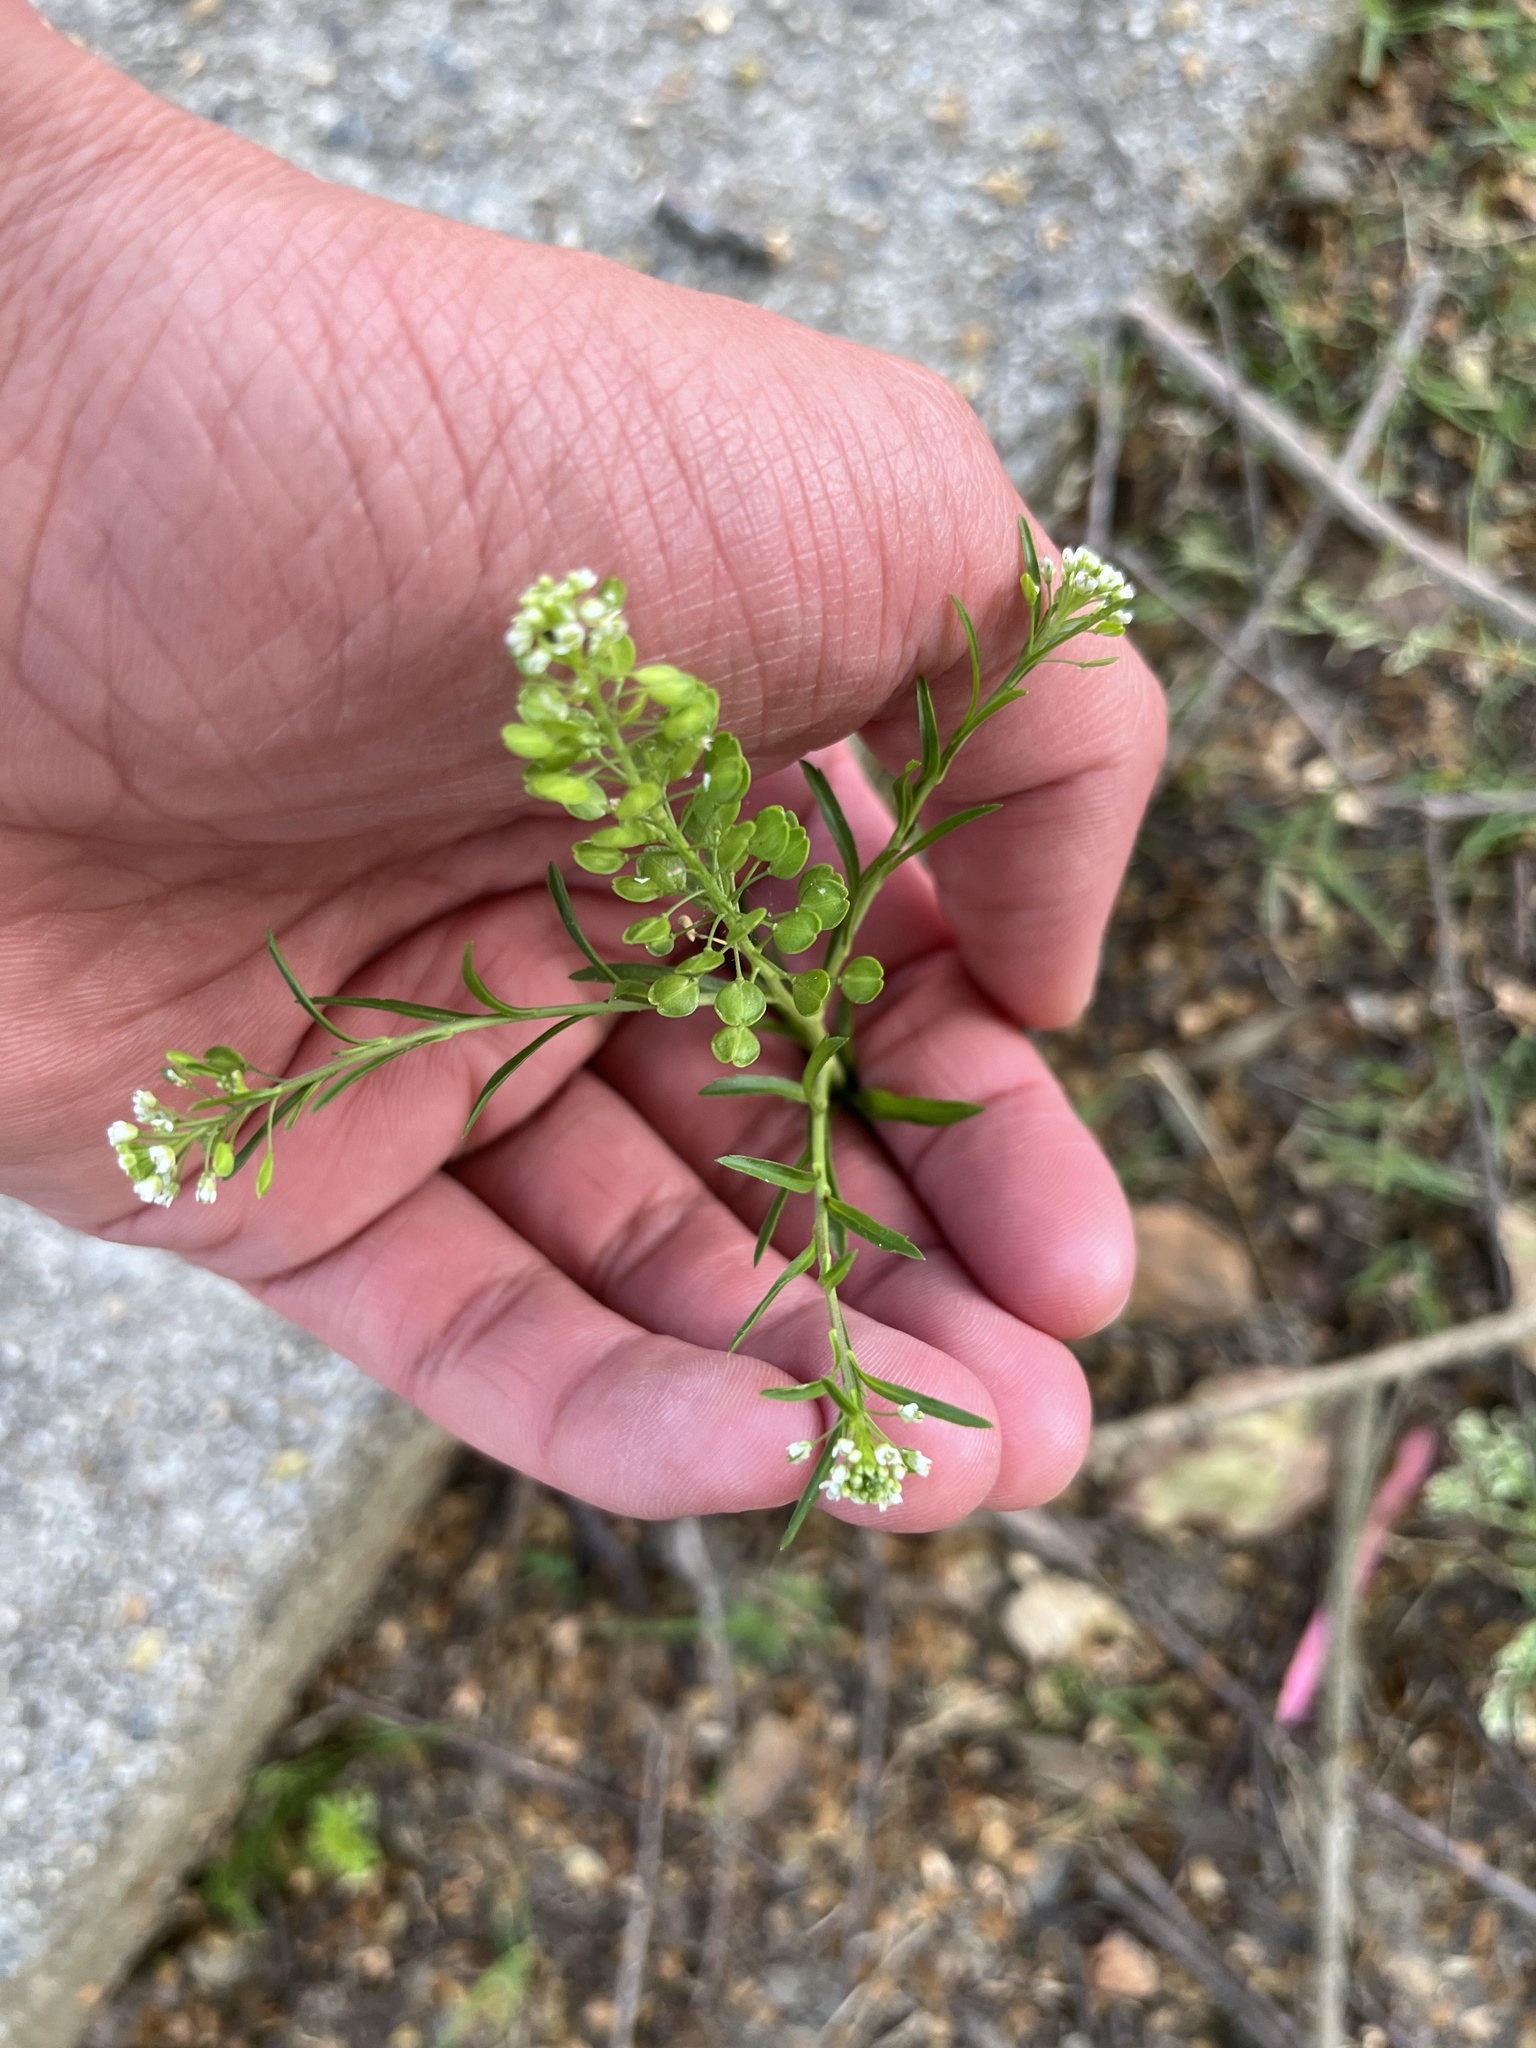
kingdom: Plantae
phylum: Tracheophyta
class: Magnoliopsida
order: Brassicales
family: Brassicaceae
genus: Lepidium
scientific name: Lepidium virginicum
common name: Least pepperwort
